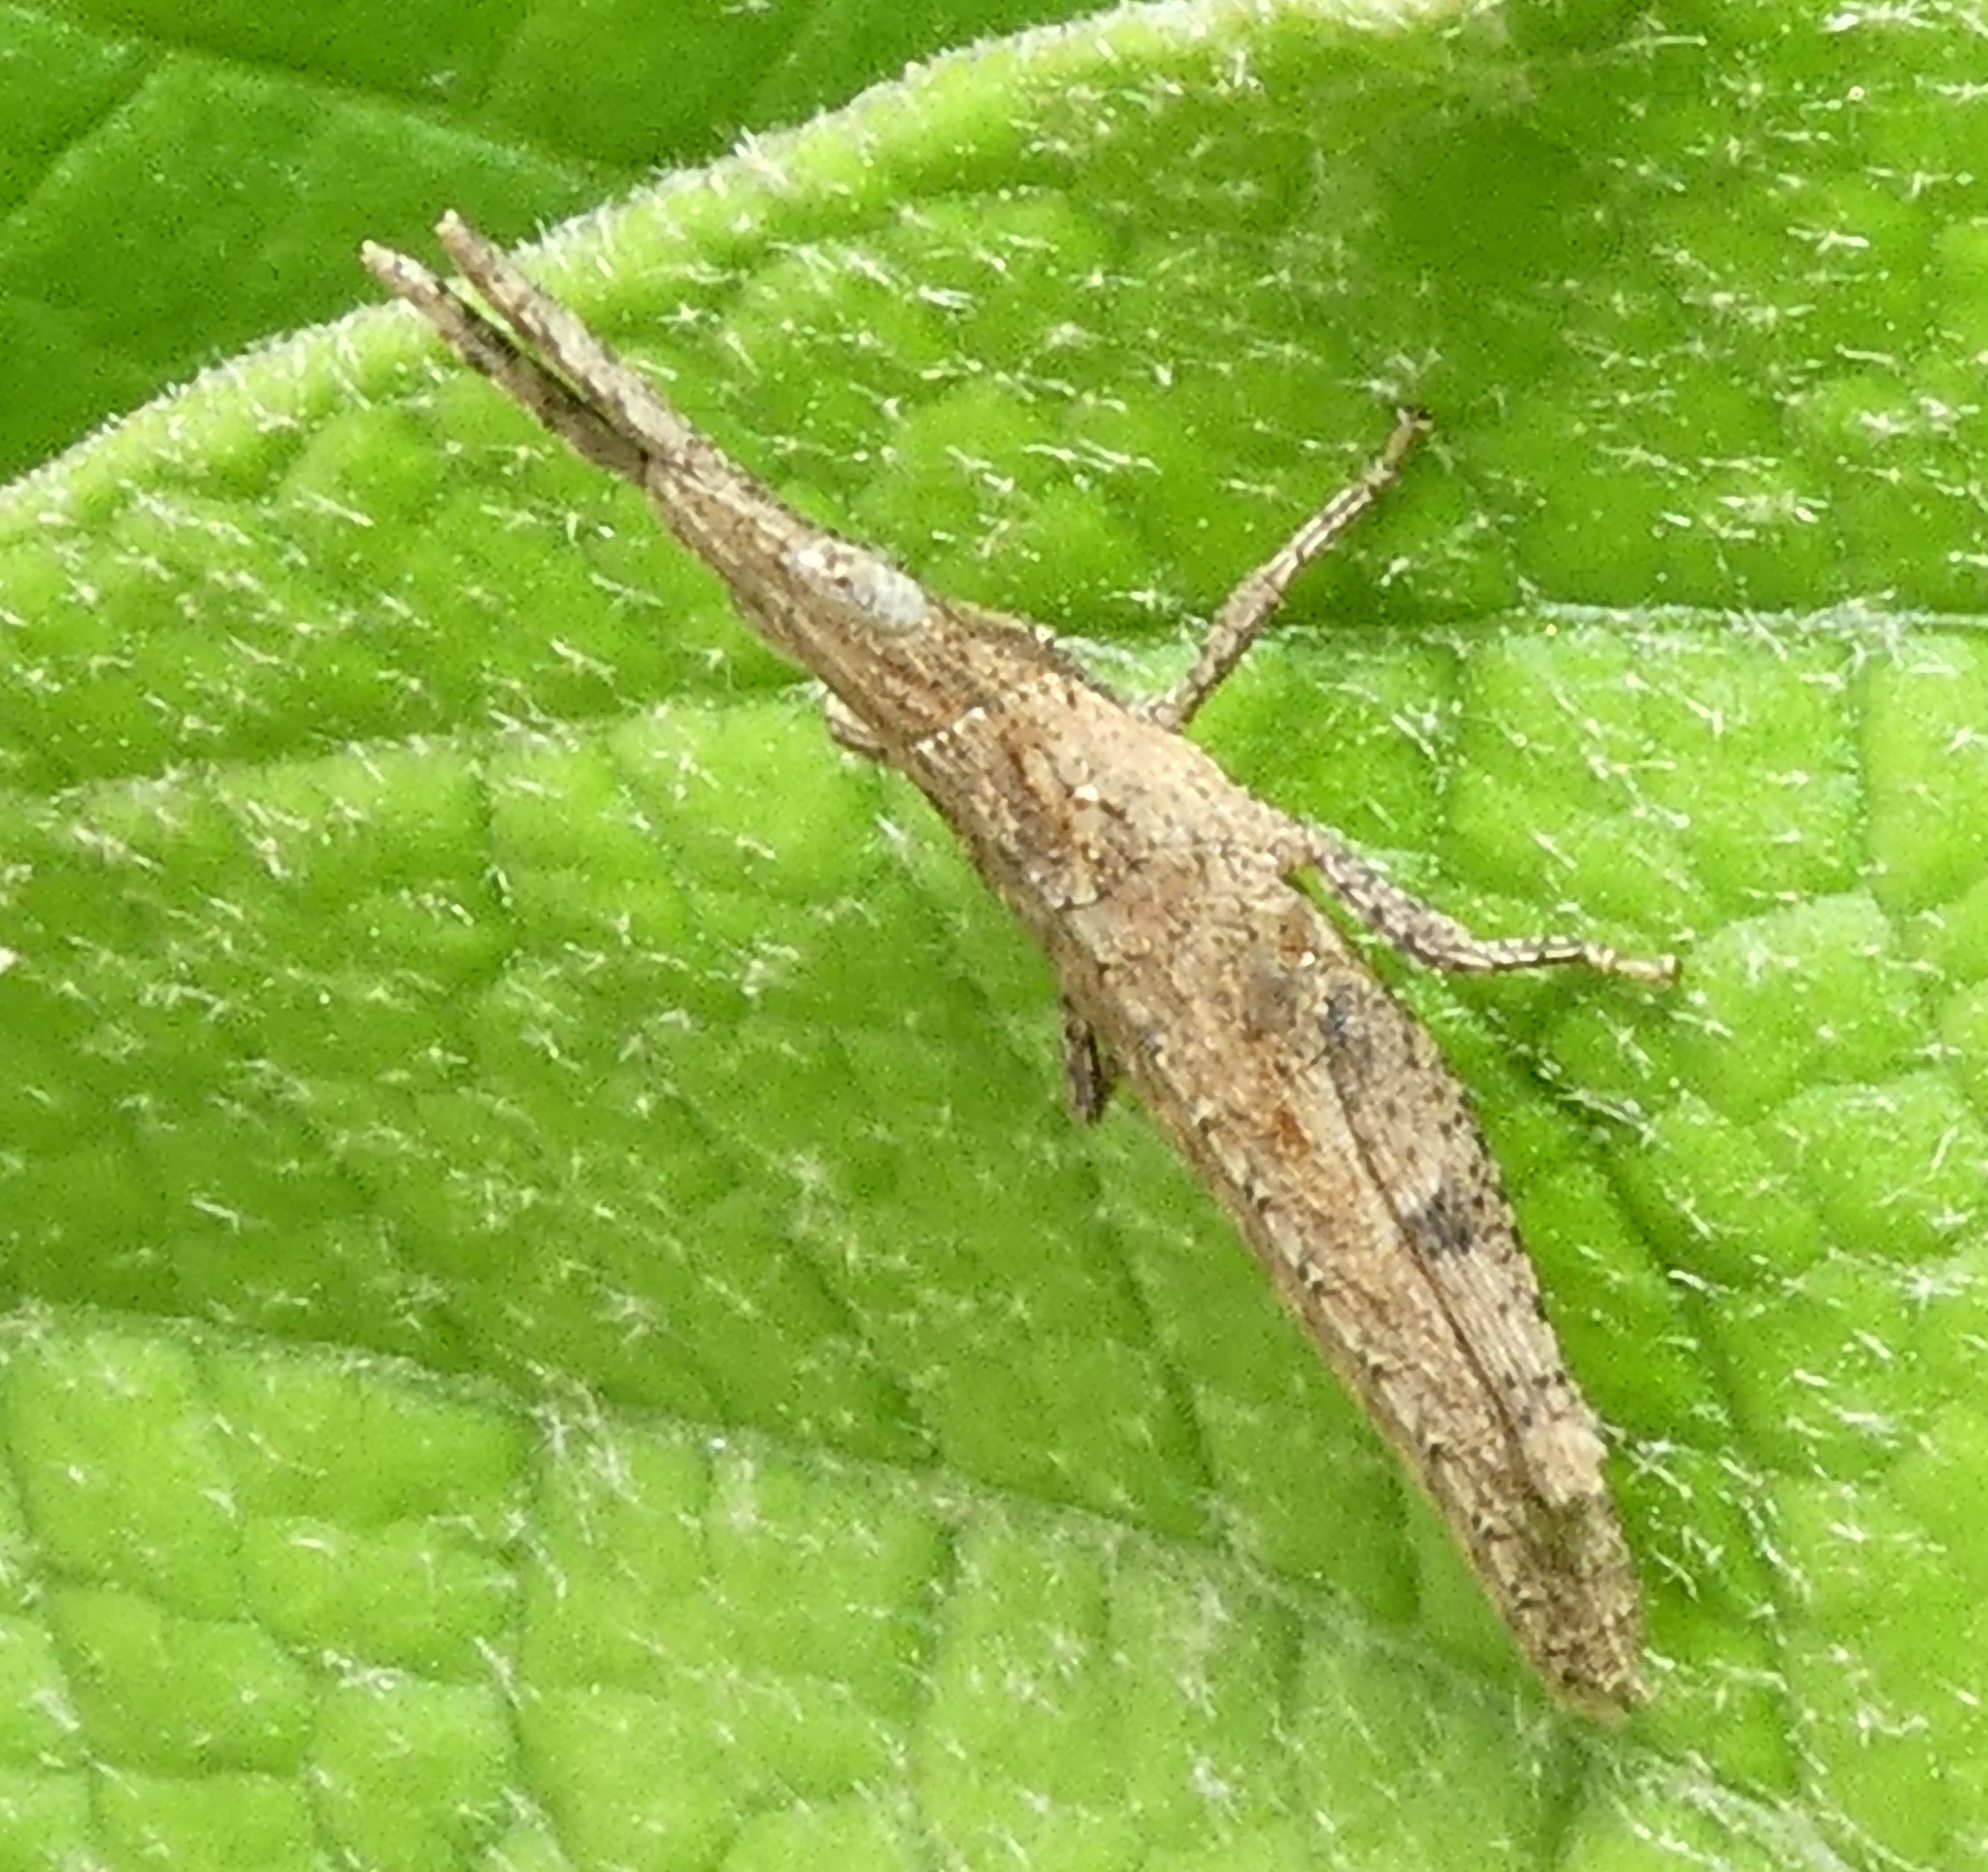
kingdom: Animalia
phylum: Arthropoda
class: Insecta
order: Orthoptera
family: Pyrgomorphidae
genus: Algete
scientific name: Algete brunneri
